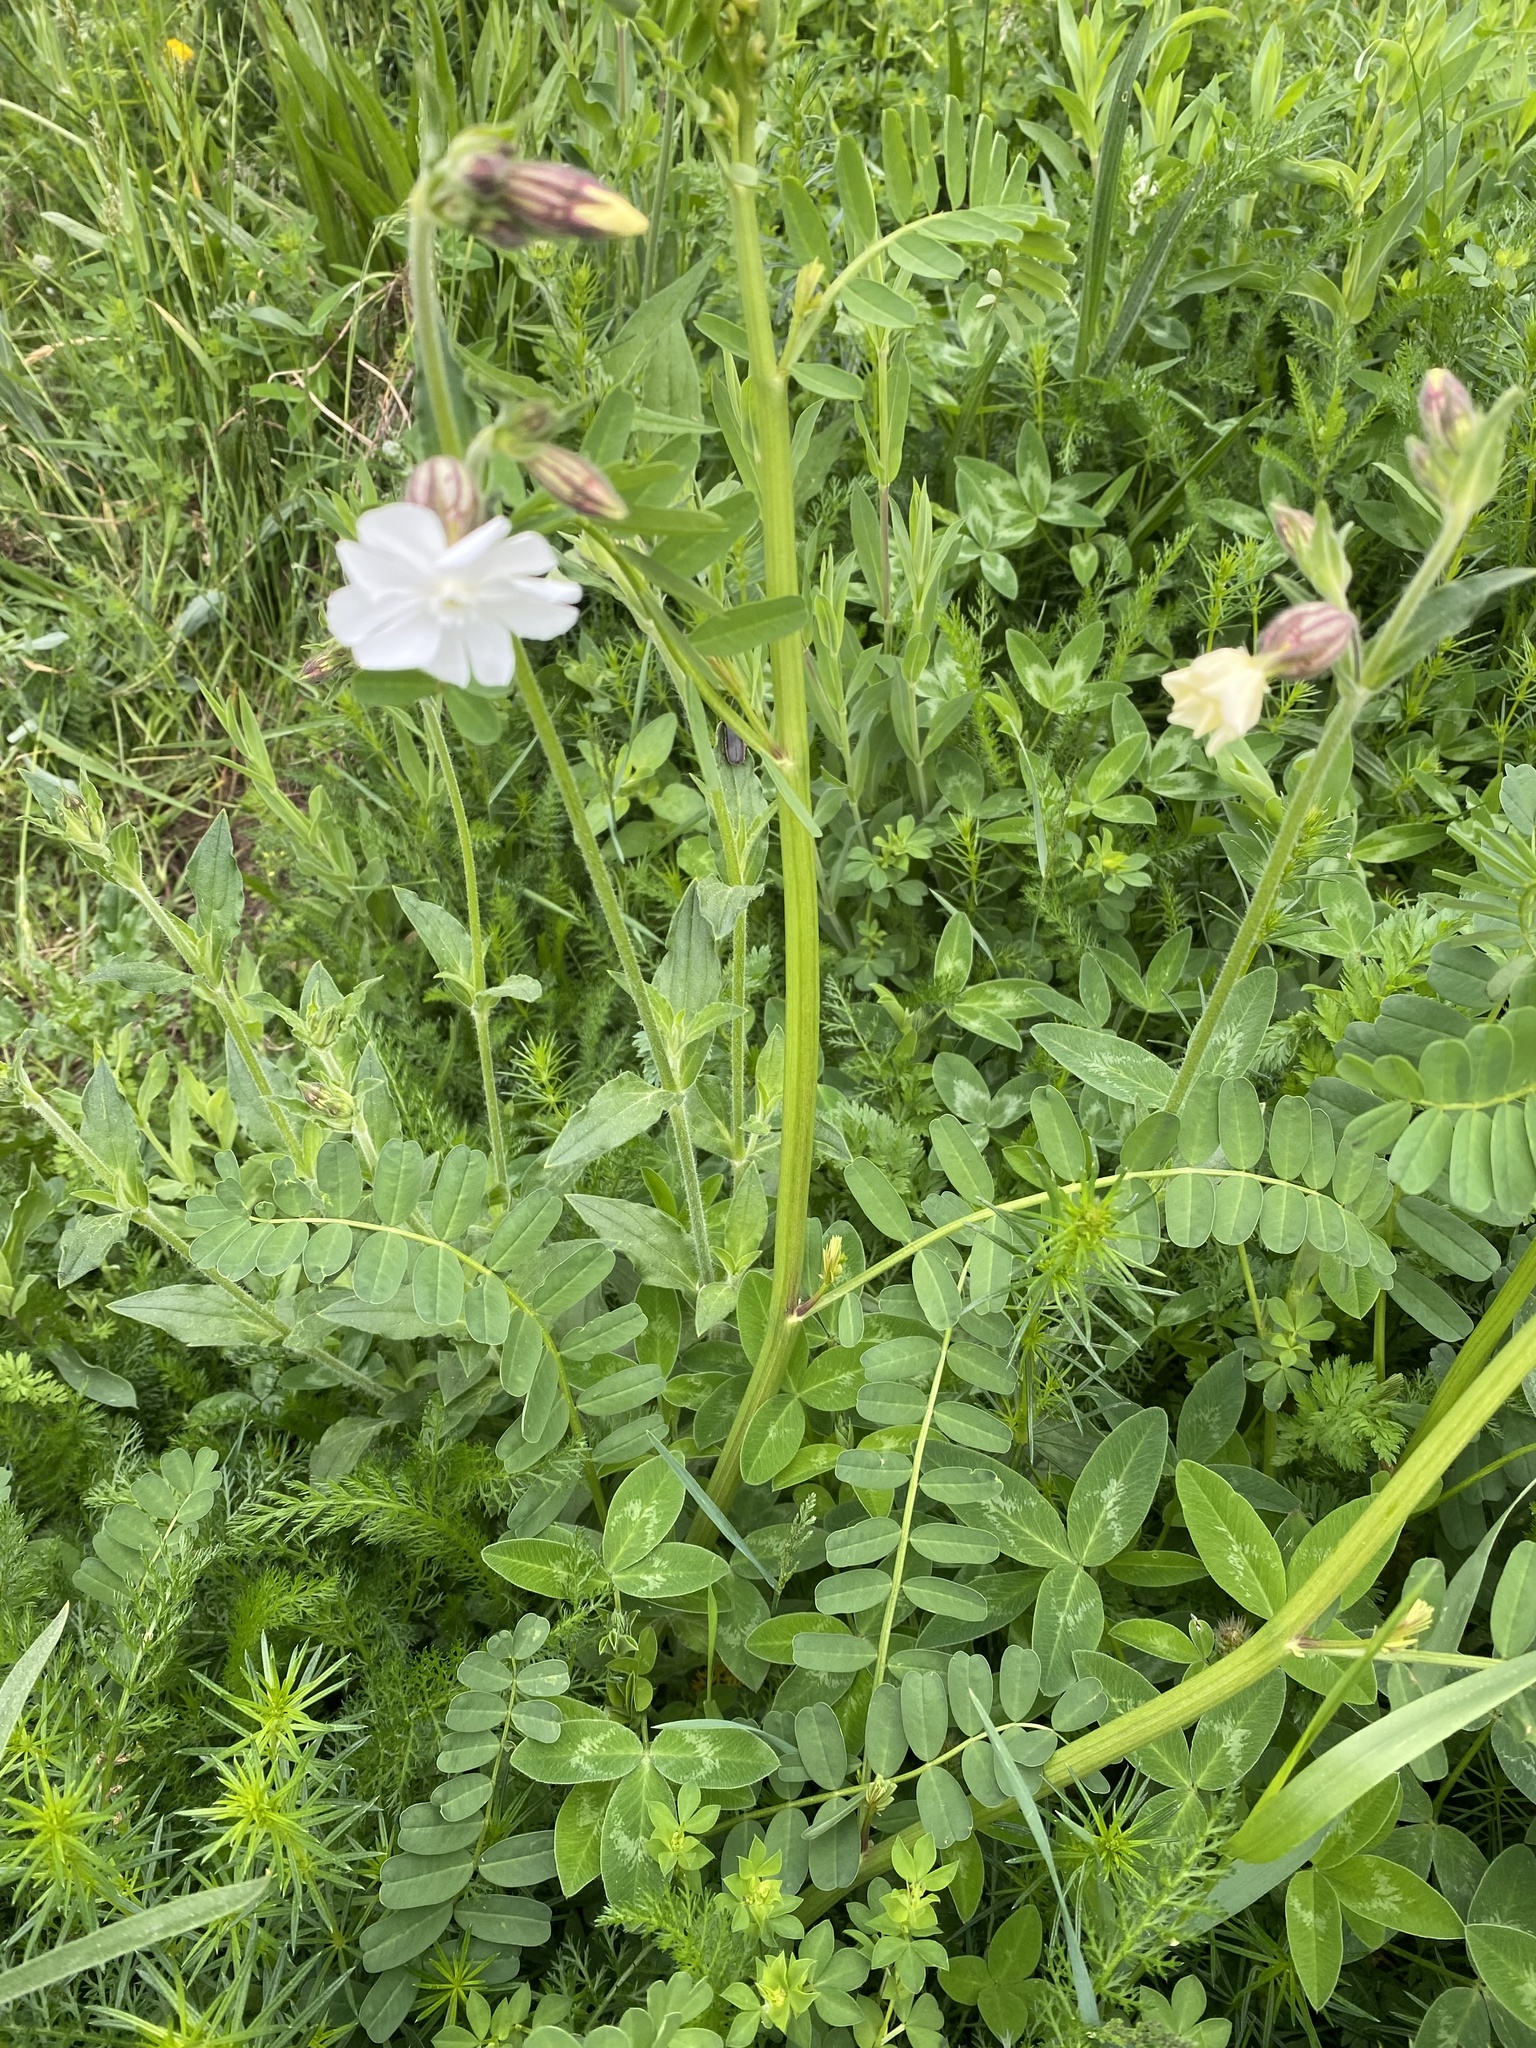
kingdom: Plantae
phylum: Tracheophyta
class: Magnoliopsida
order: Caryophyllales
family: Caryophyllaceae
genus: Silene
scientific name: Silene latifolia
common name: White campion
